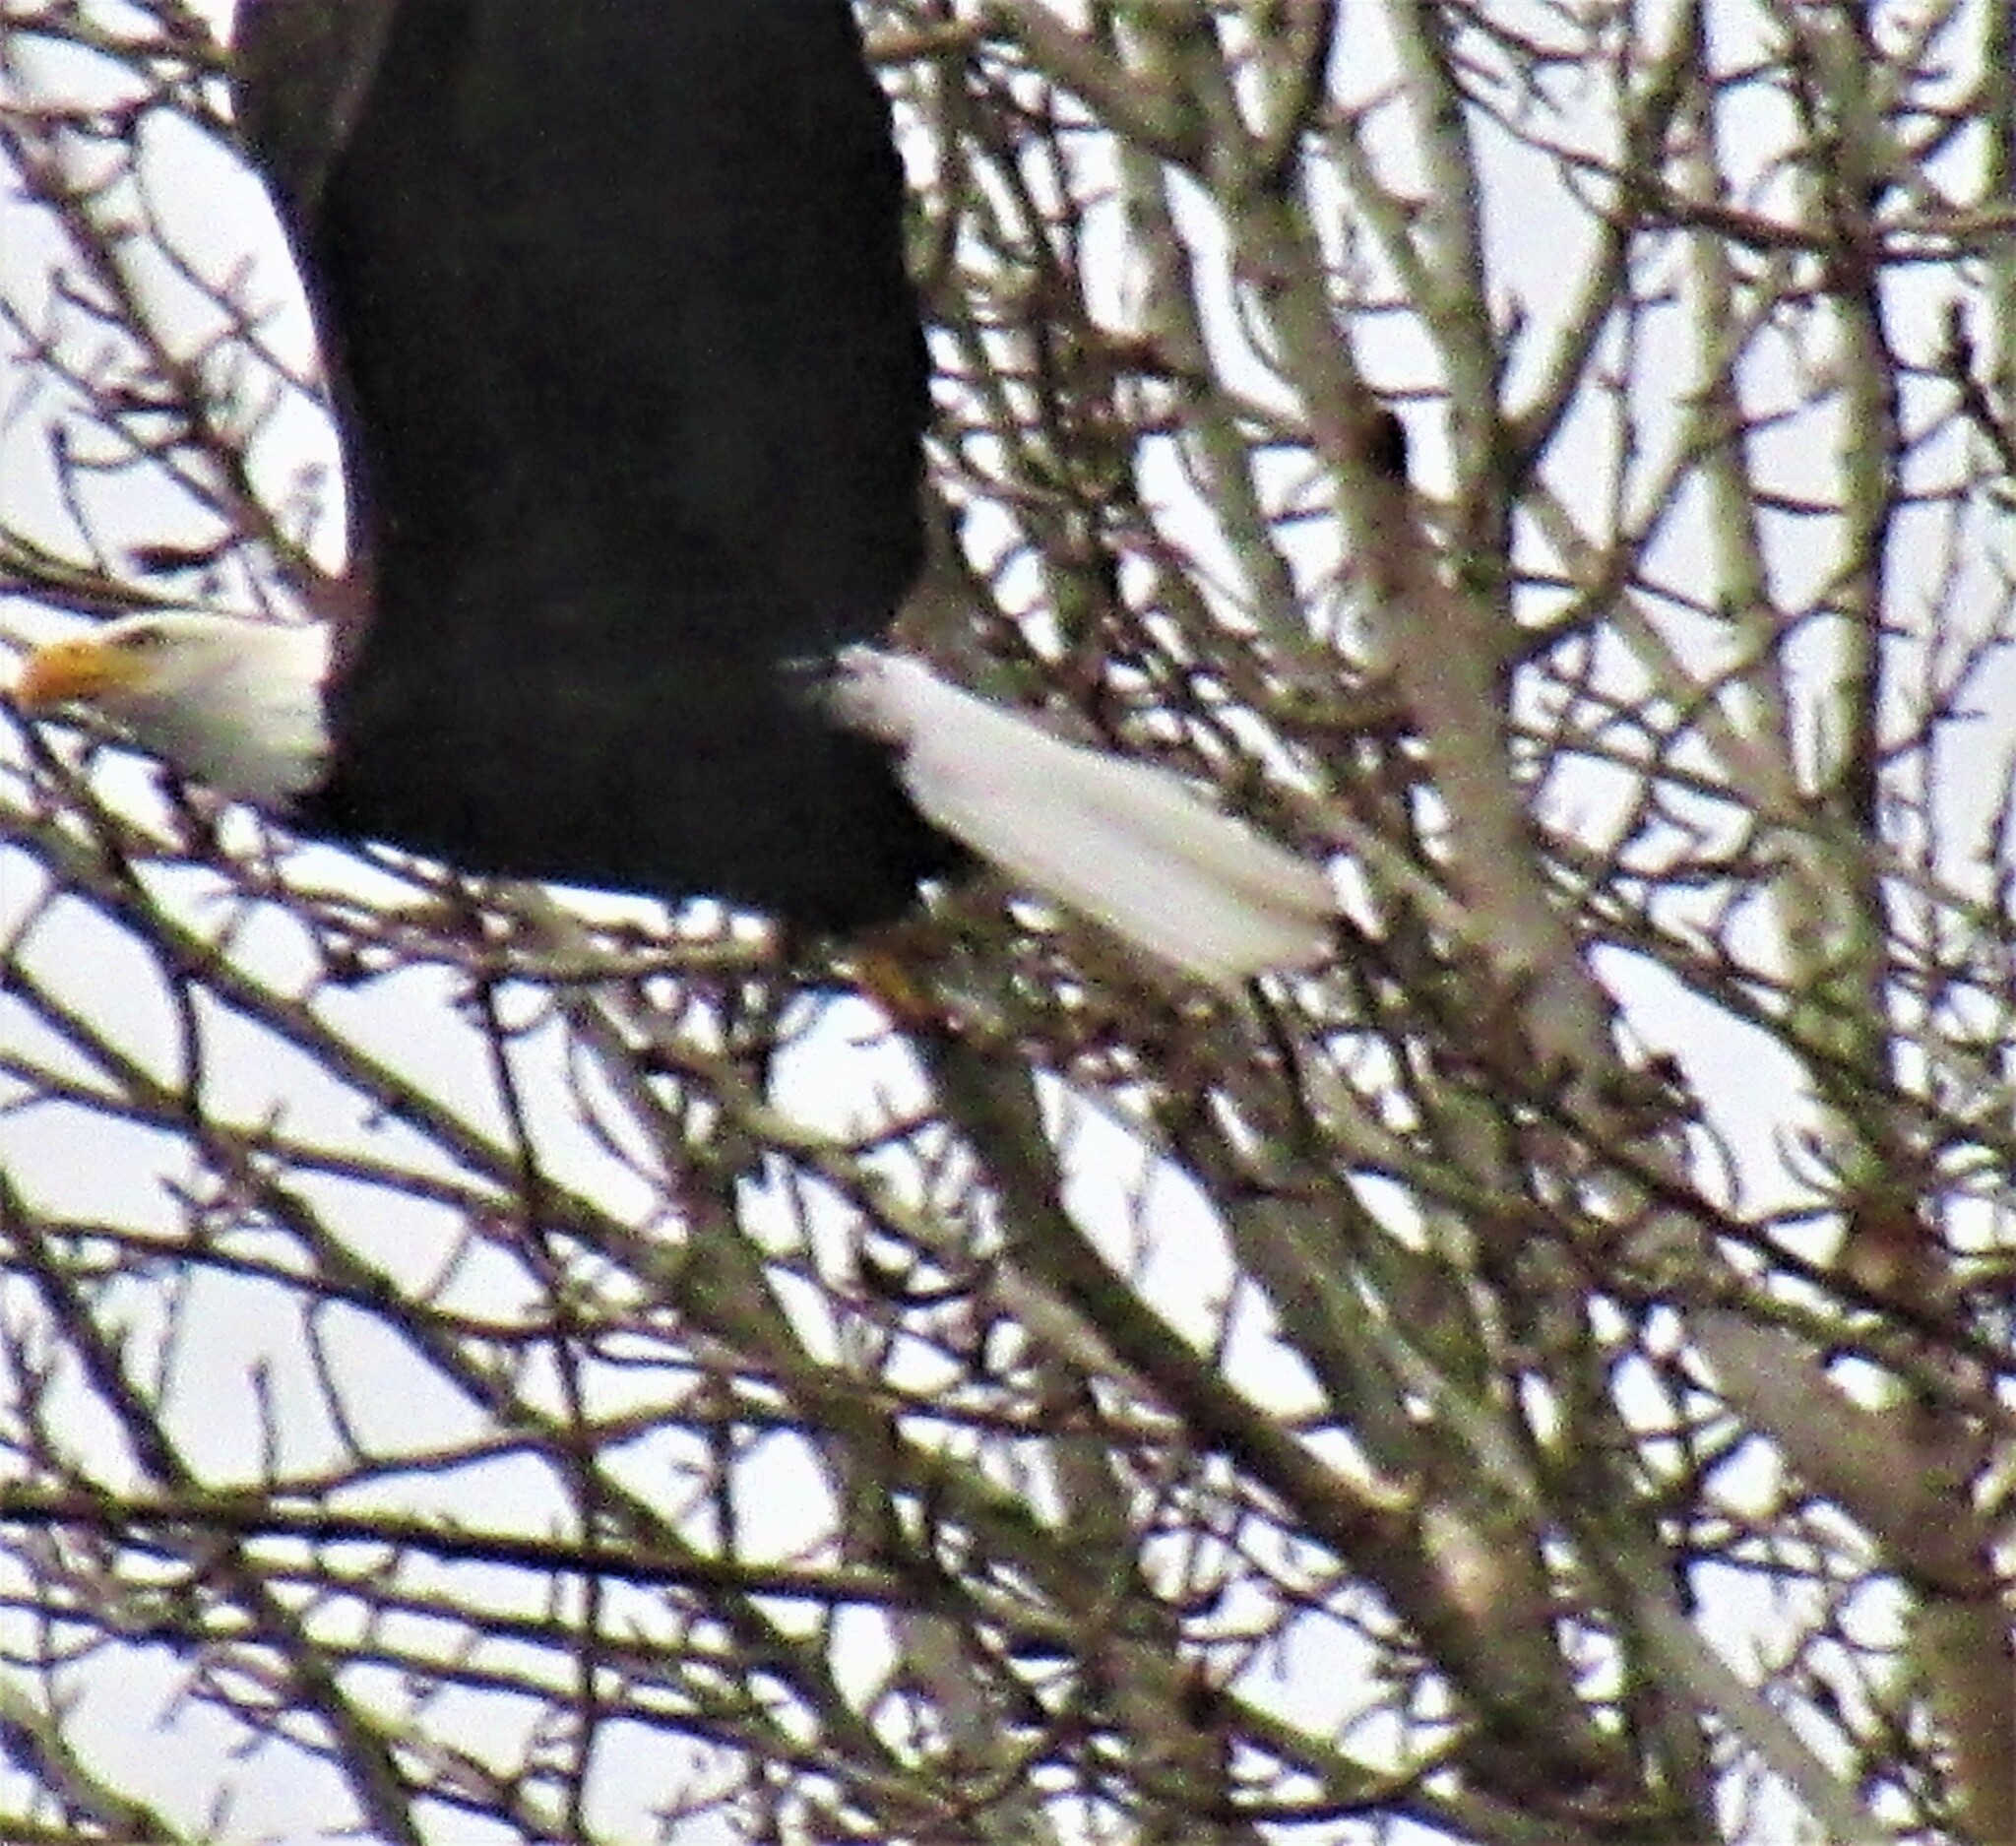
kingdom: Animalia
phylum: Chordata
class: Aves
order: Accipitriformes
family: Accipitridae
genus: Haliaeetus
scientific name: Haliaeetus leucocephalus
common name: Bald eagle
